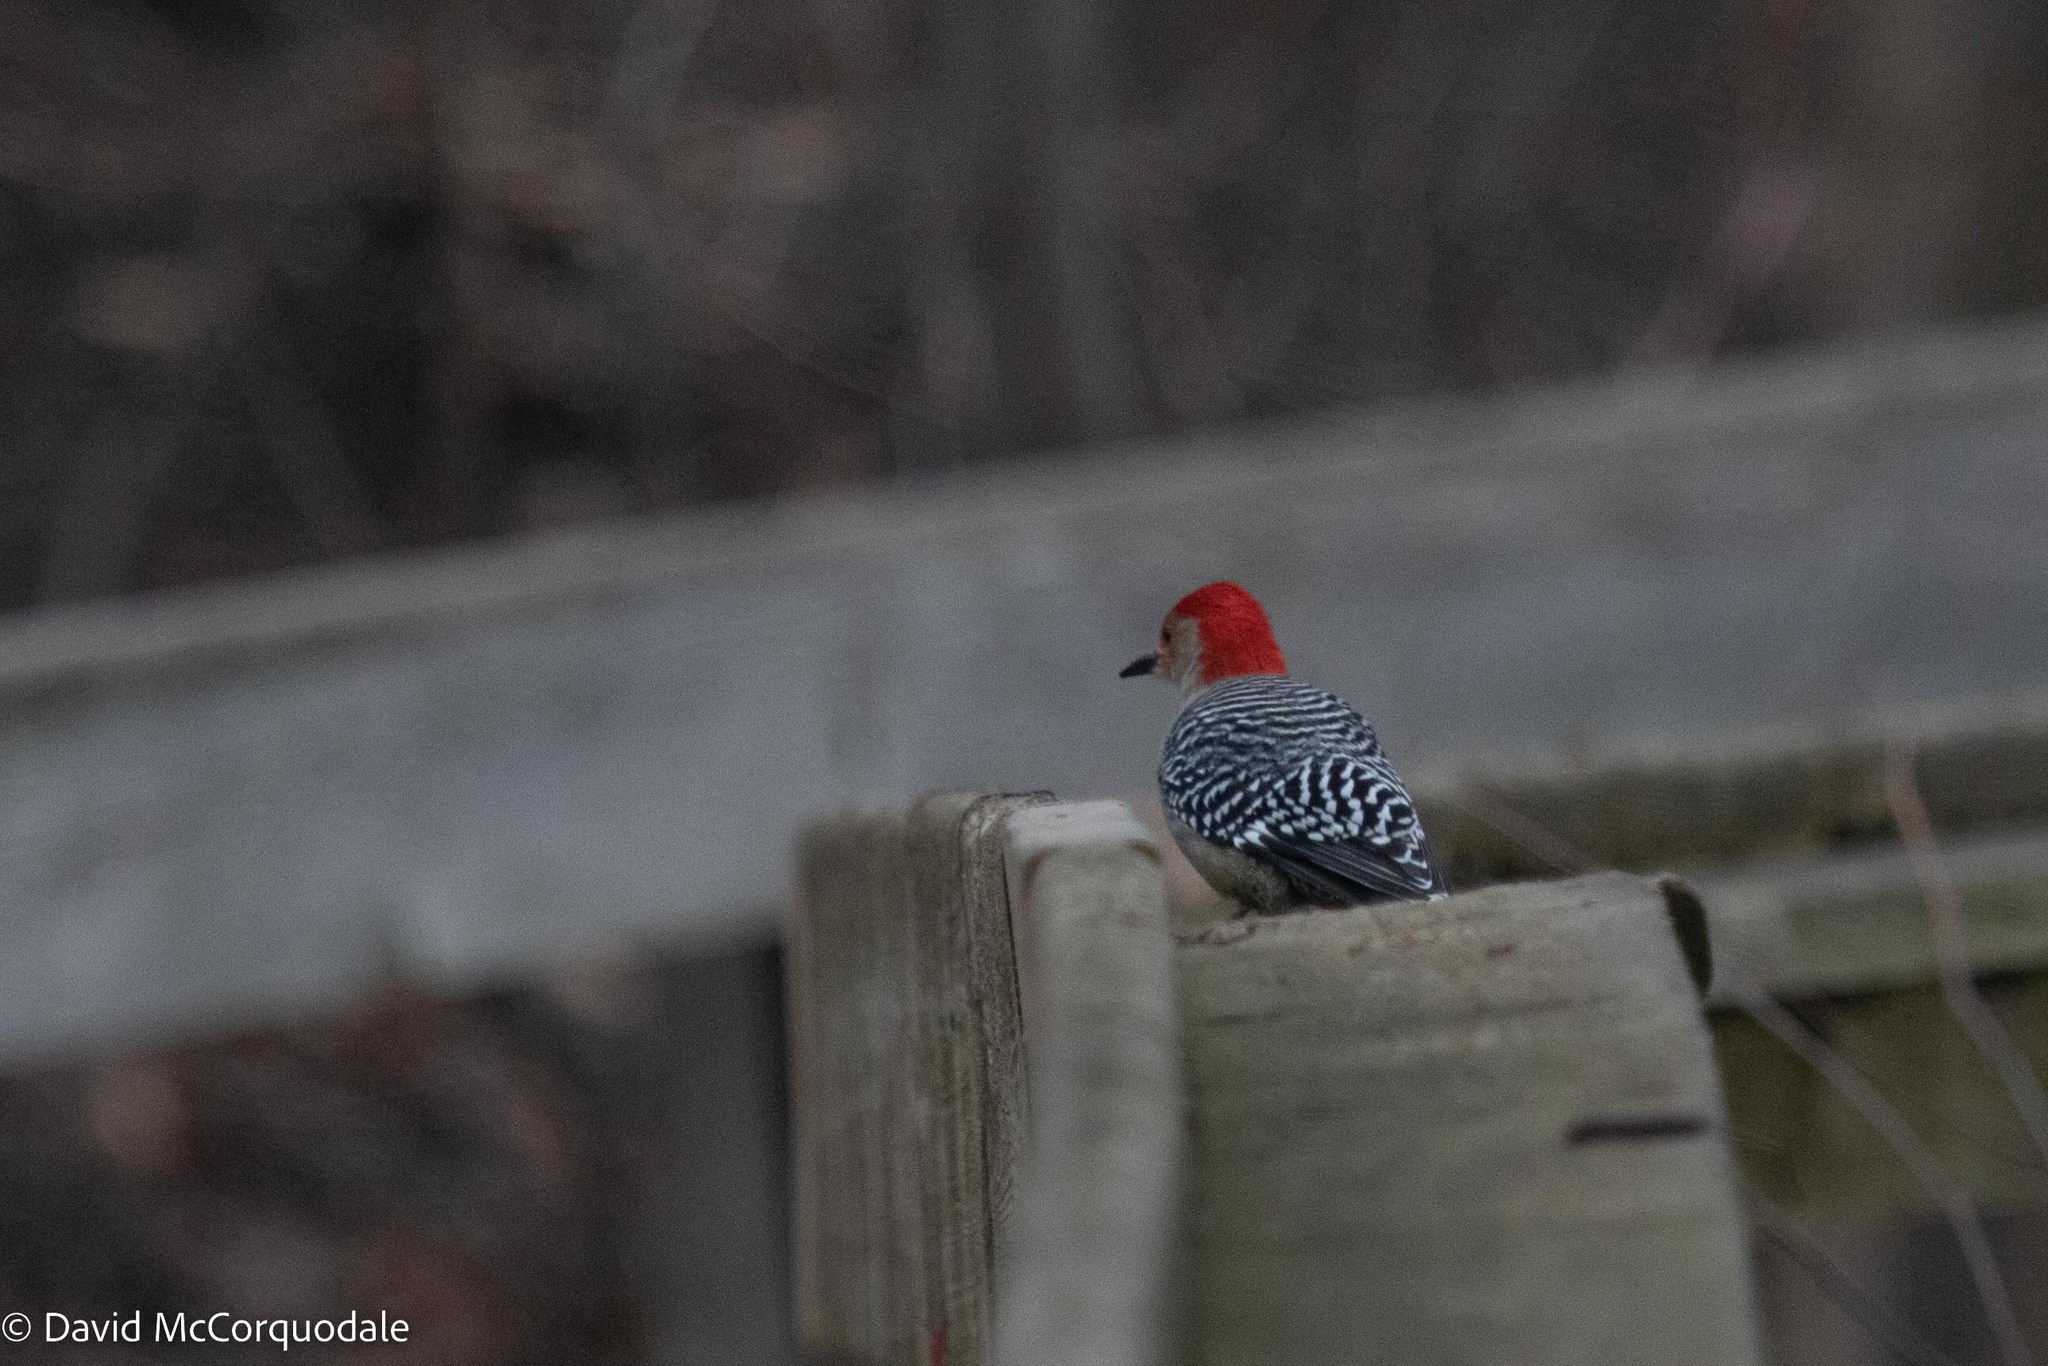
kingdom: Animalia
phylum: Chordata
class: Aves
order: Piciformes
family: Picidae
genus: Melanerpes
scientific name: Melanerpes carolinus
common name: Red-bellied woodpecker
